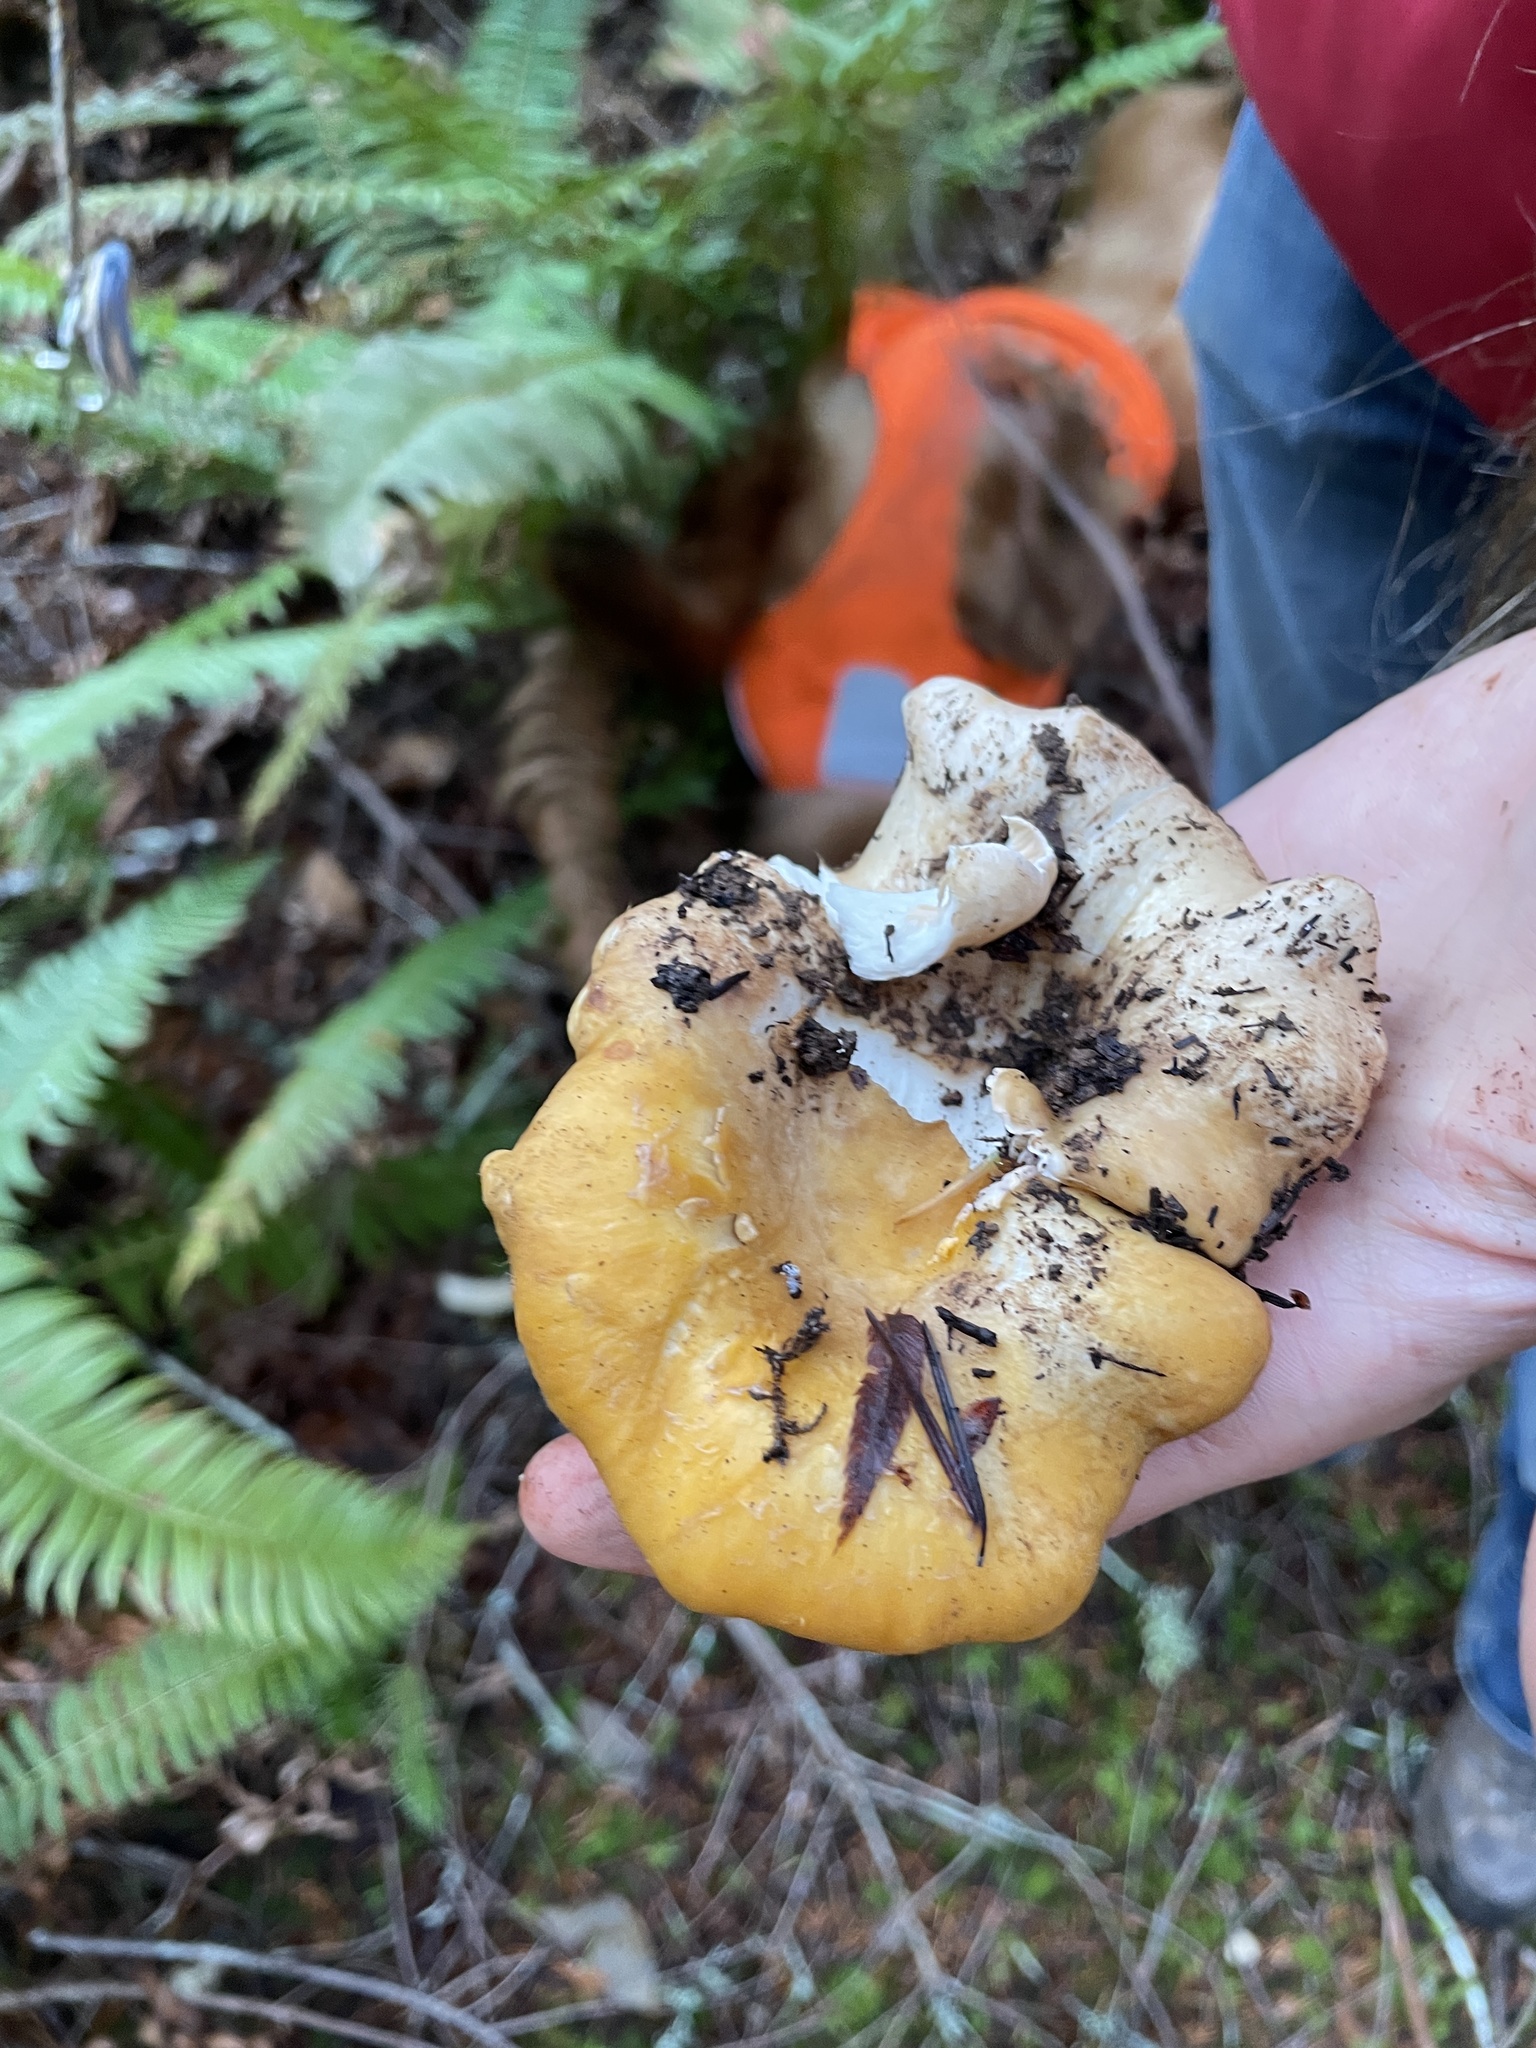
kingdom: Fungi
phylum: Basidiomycota
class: Agaricomycetes
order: Cantharellales
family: Hydnaceae
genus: Cantharellus
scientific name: Cantharellus formosus
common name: Pacific golden chanterelle
